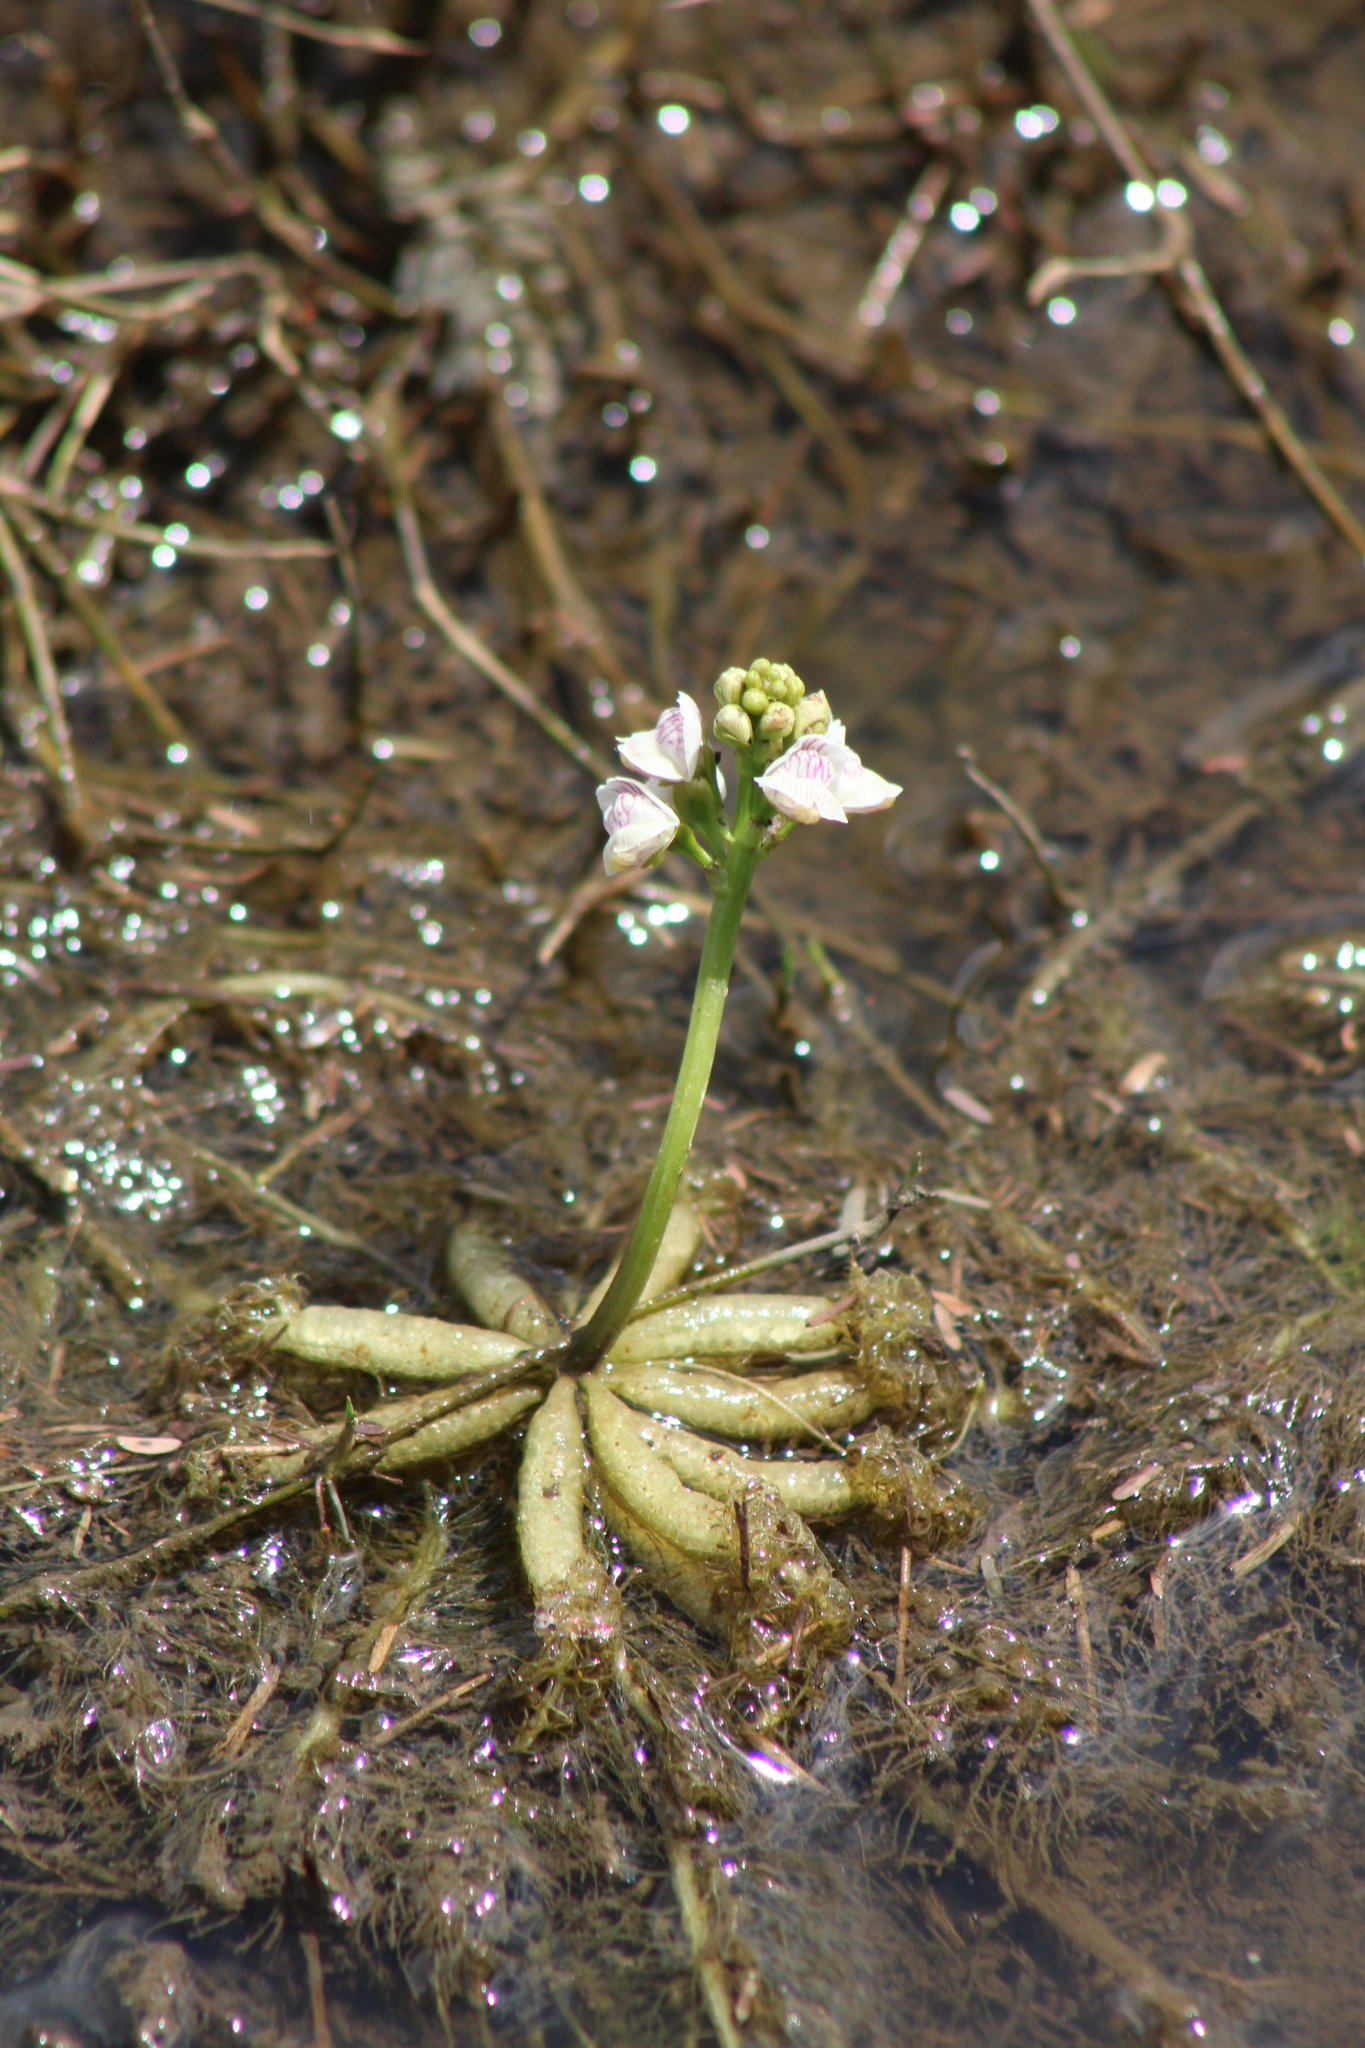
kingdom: Plantae
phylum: Tracheophyta
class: Magnoliopsida
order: Lamiales
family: Lentibulariaceae
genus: Utricularia
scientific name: Utricularia inflexa
